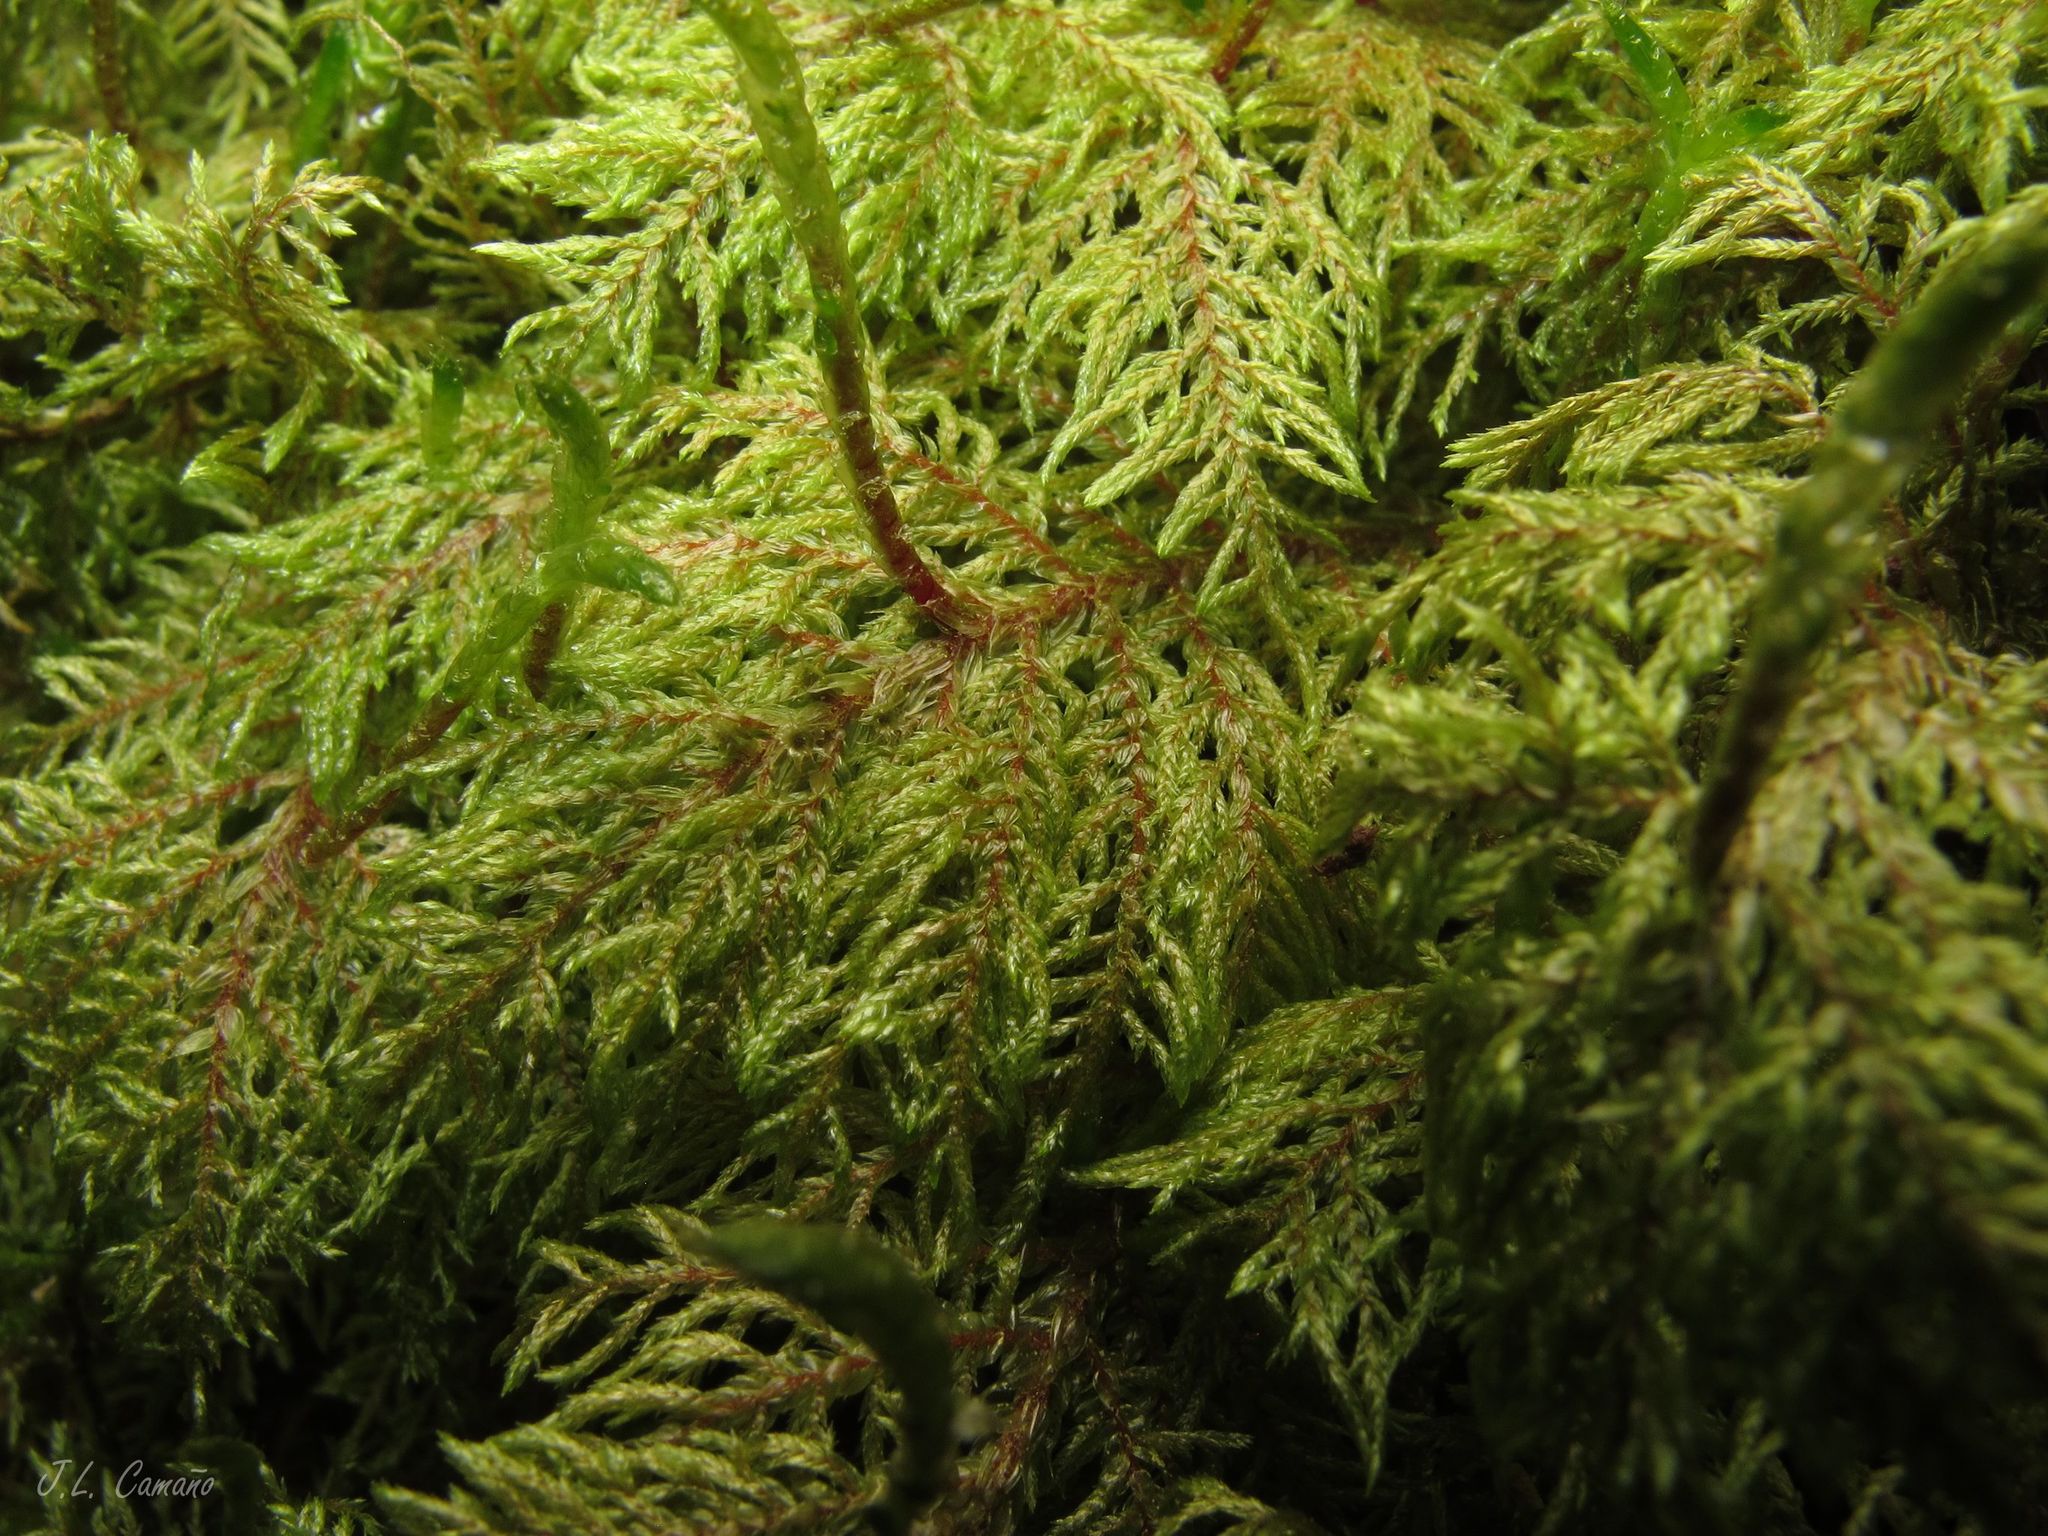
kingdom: Plantae
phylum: Bryophyta
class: Bryopsida
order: Hypnales
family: Hylocomiaceae
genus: Hylocomium
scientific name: Hylocomium splendens
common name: Stairstep moss
